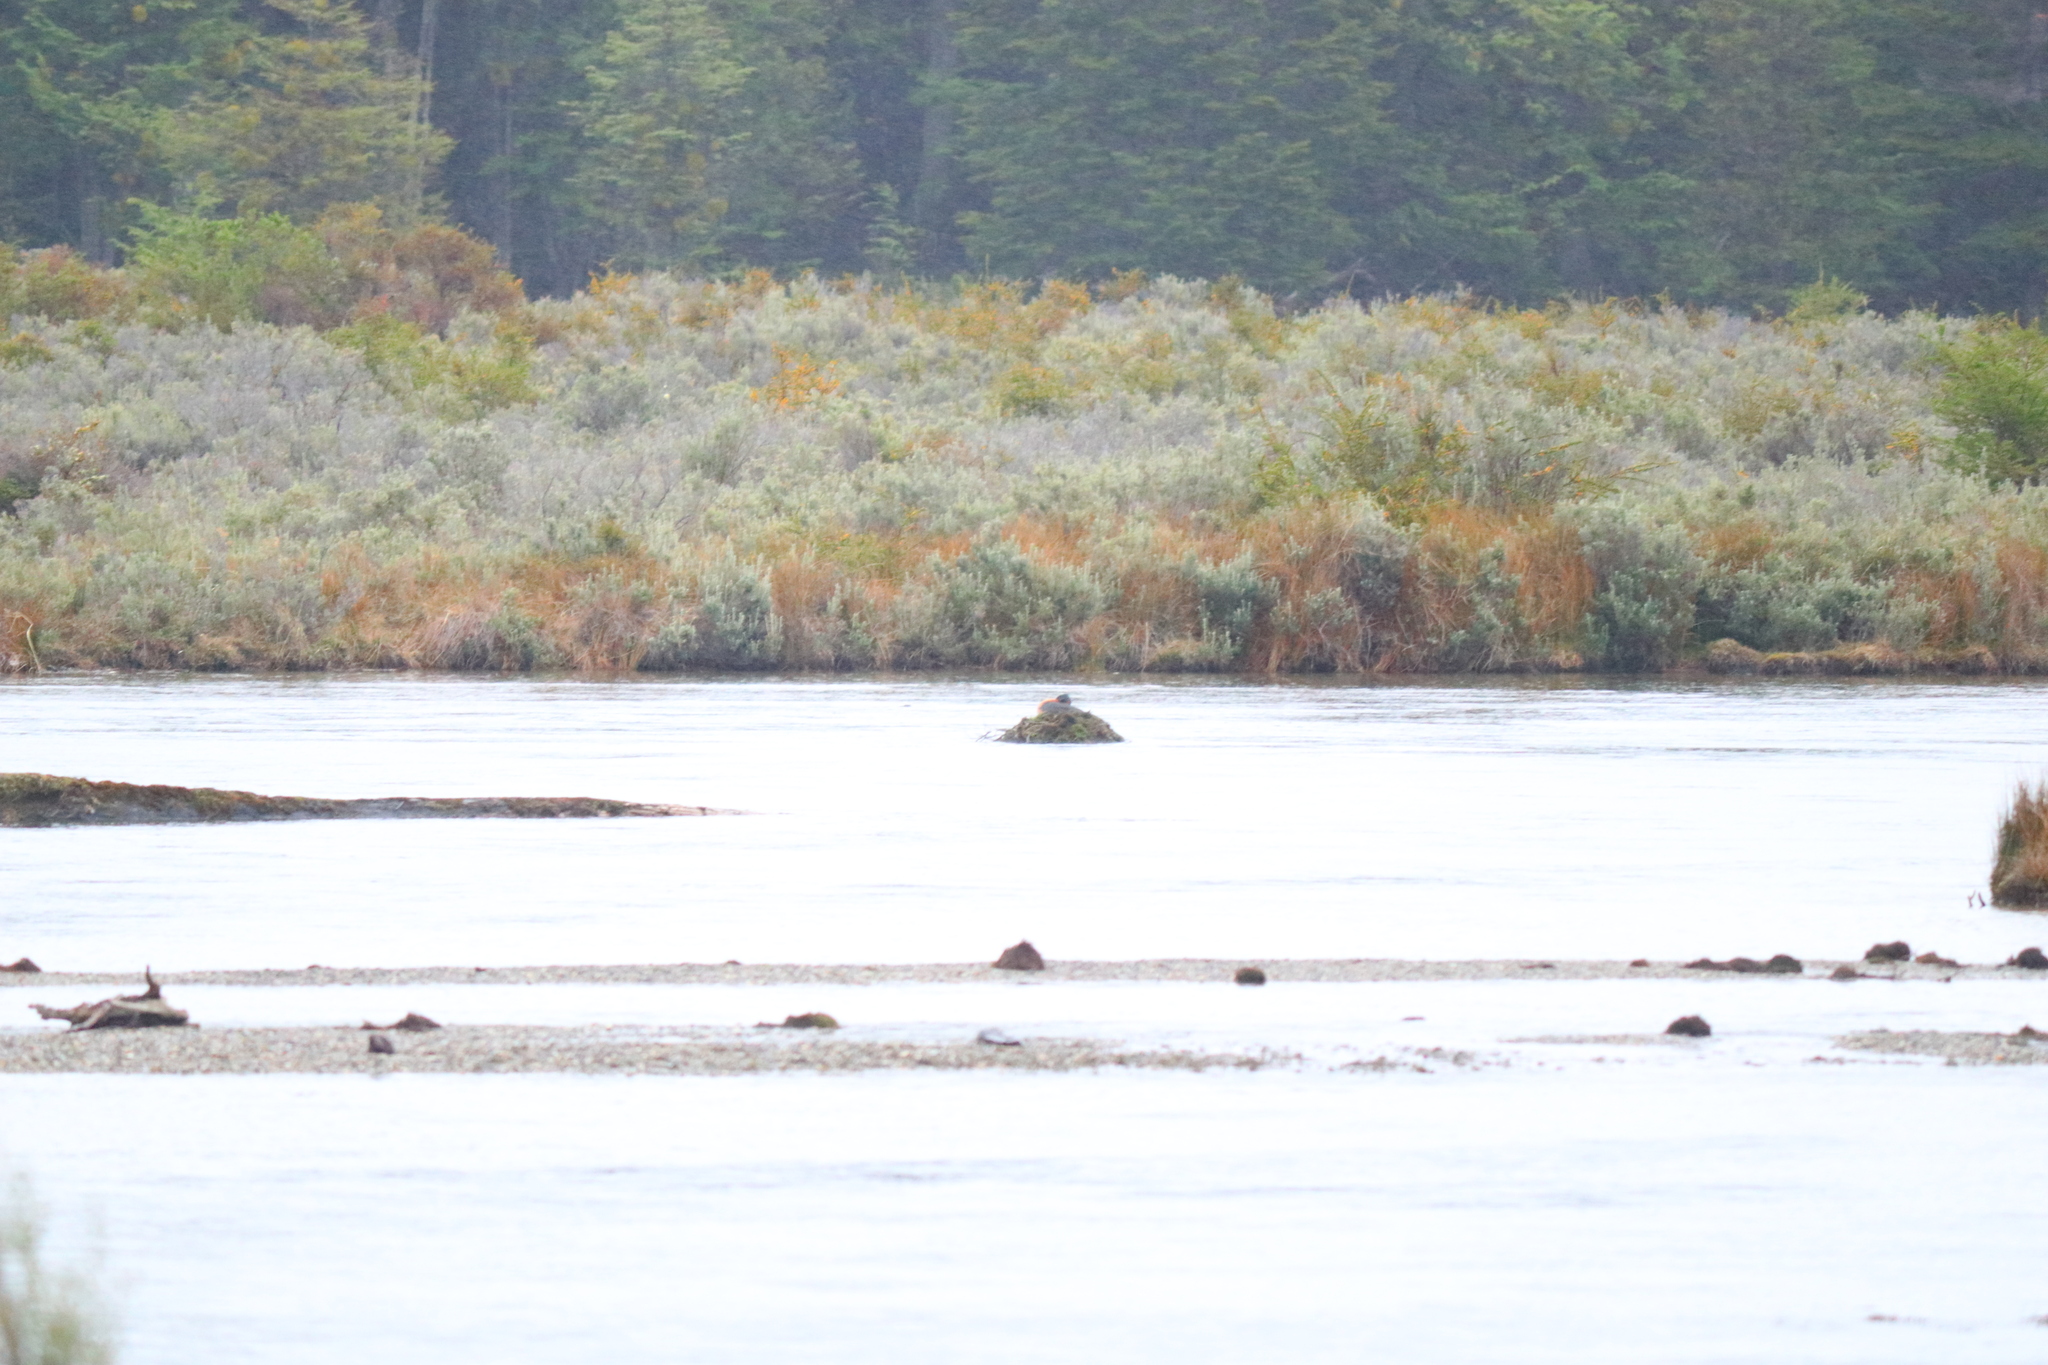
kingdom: Animalia
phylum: Chordata
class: Aves
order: Podicipediformes
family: Podicipedidae
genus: Podiceps
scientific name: Podiceps major
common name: Great grebe
